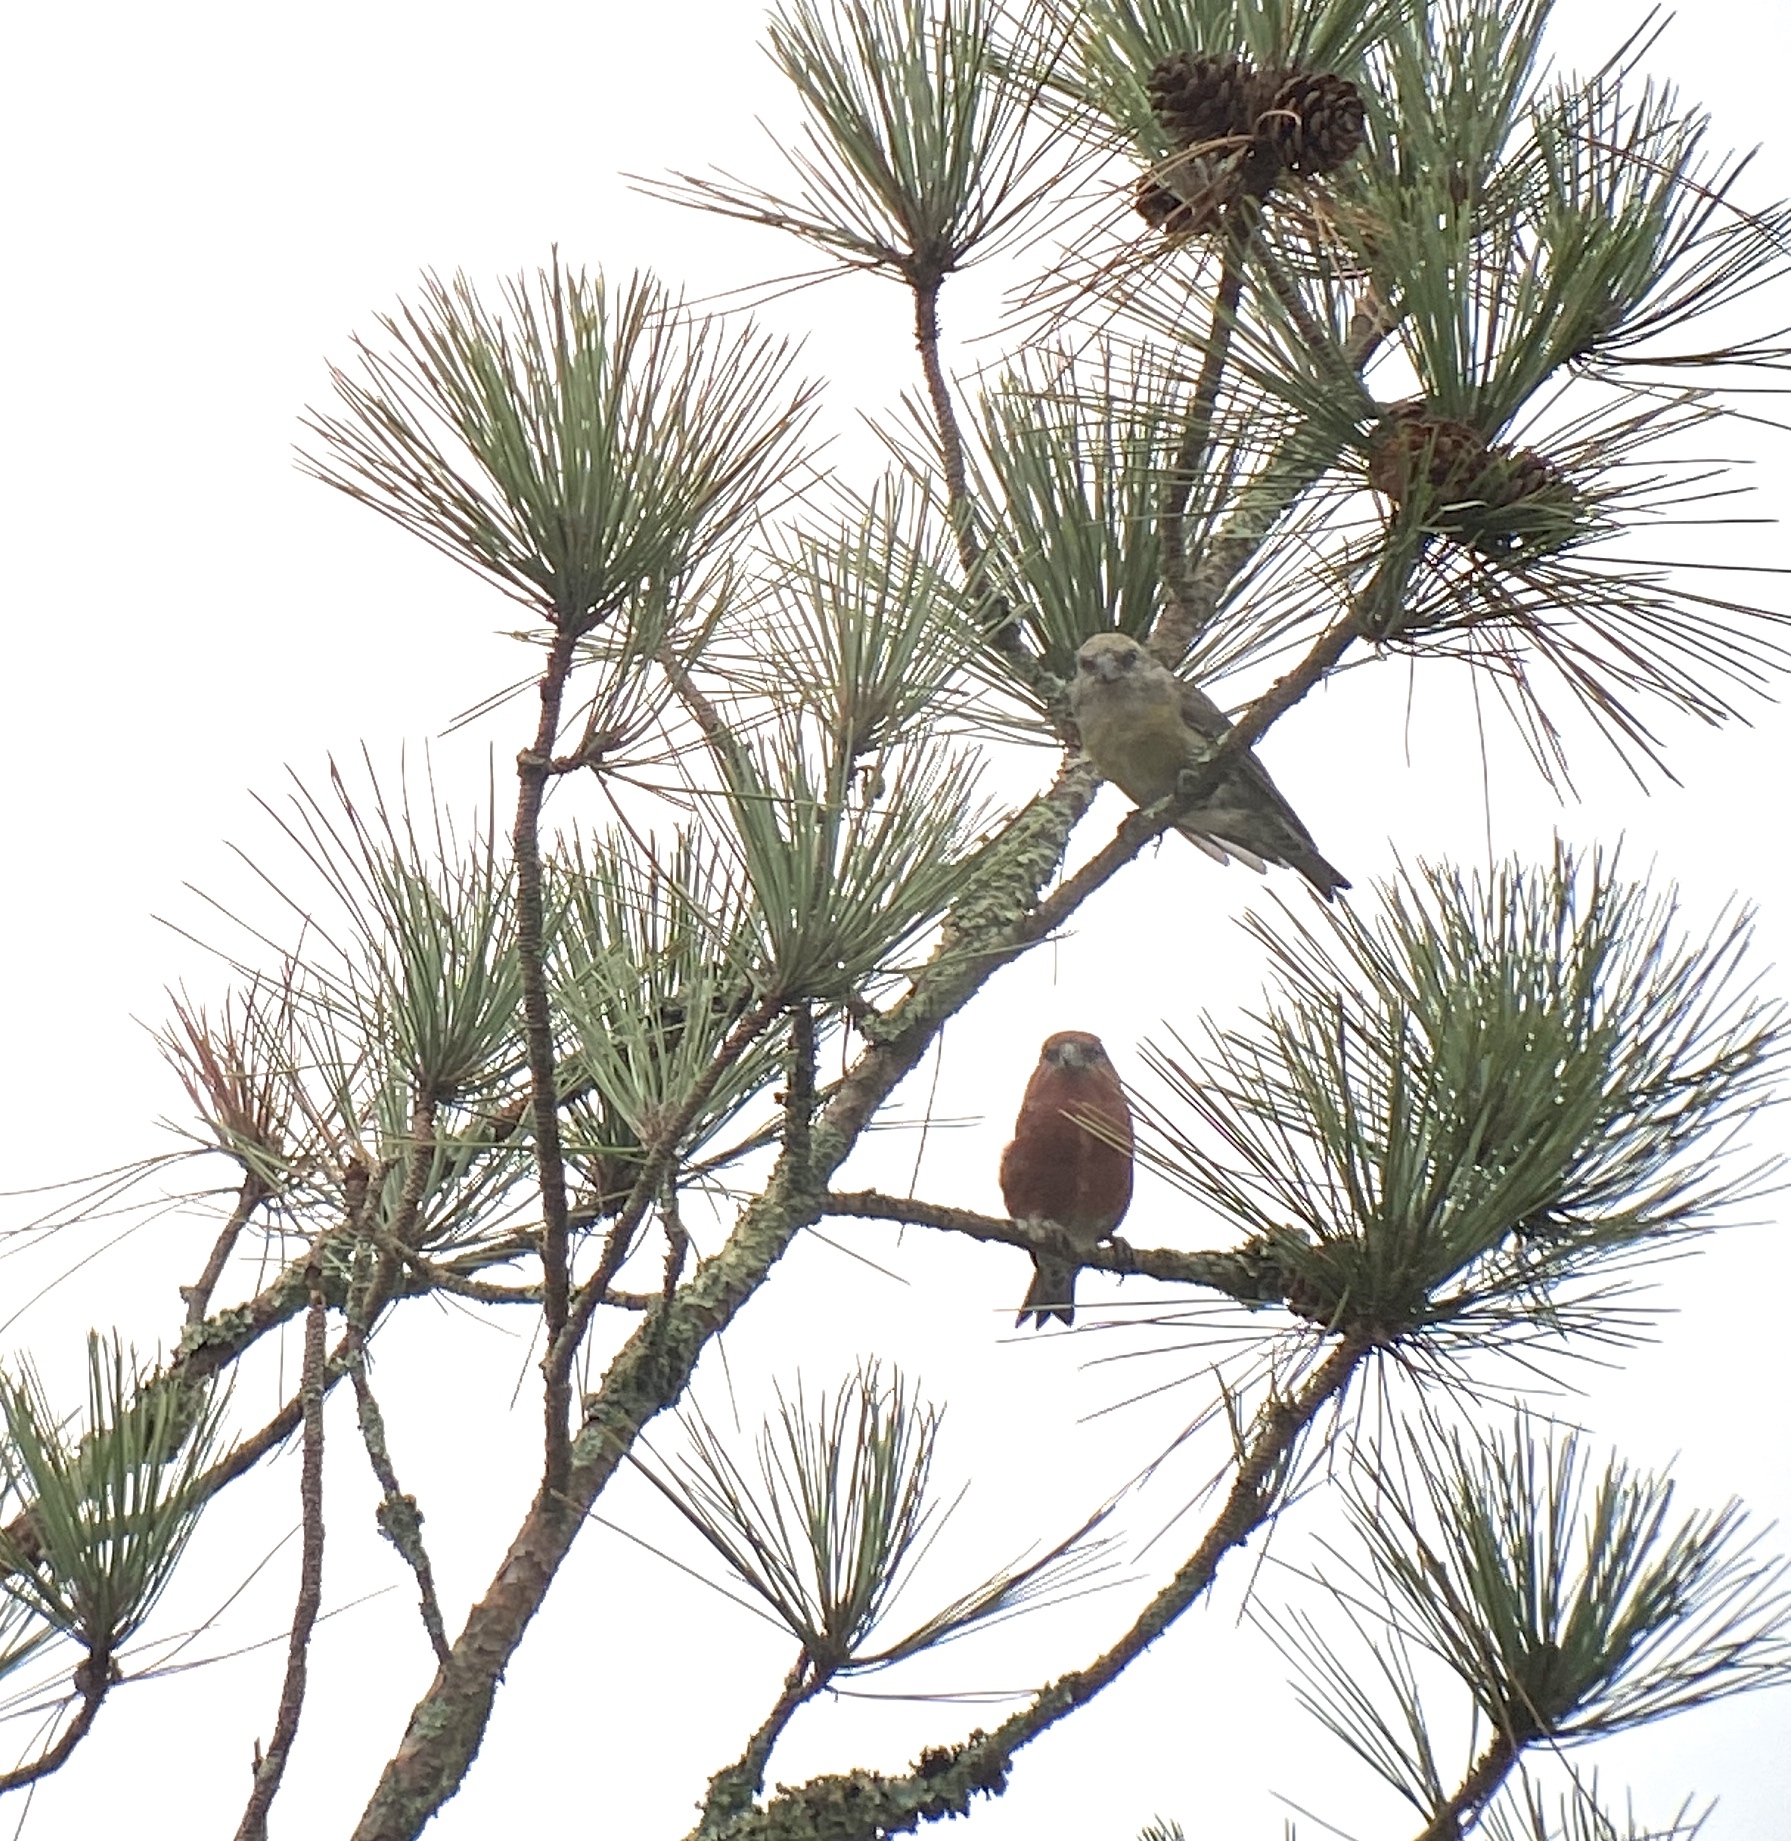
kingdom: Animalia
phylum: Chordata
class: Aves
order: Passeriformes
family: Fringillidae
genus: Loxia
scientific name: Loxia curvirostra
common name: Red crossbill
